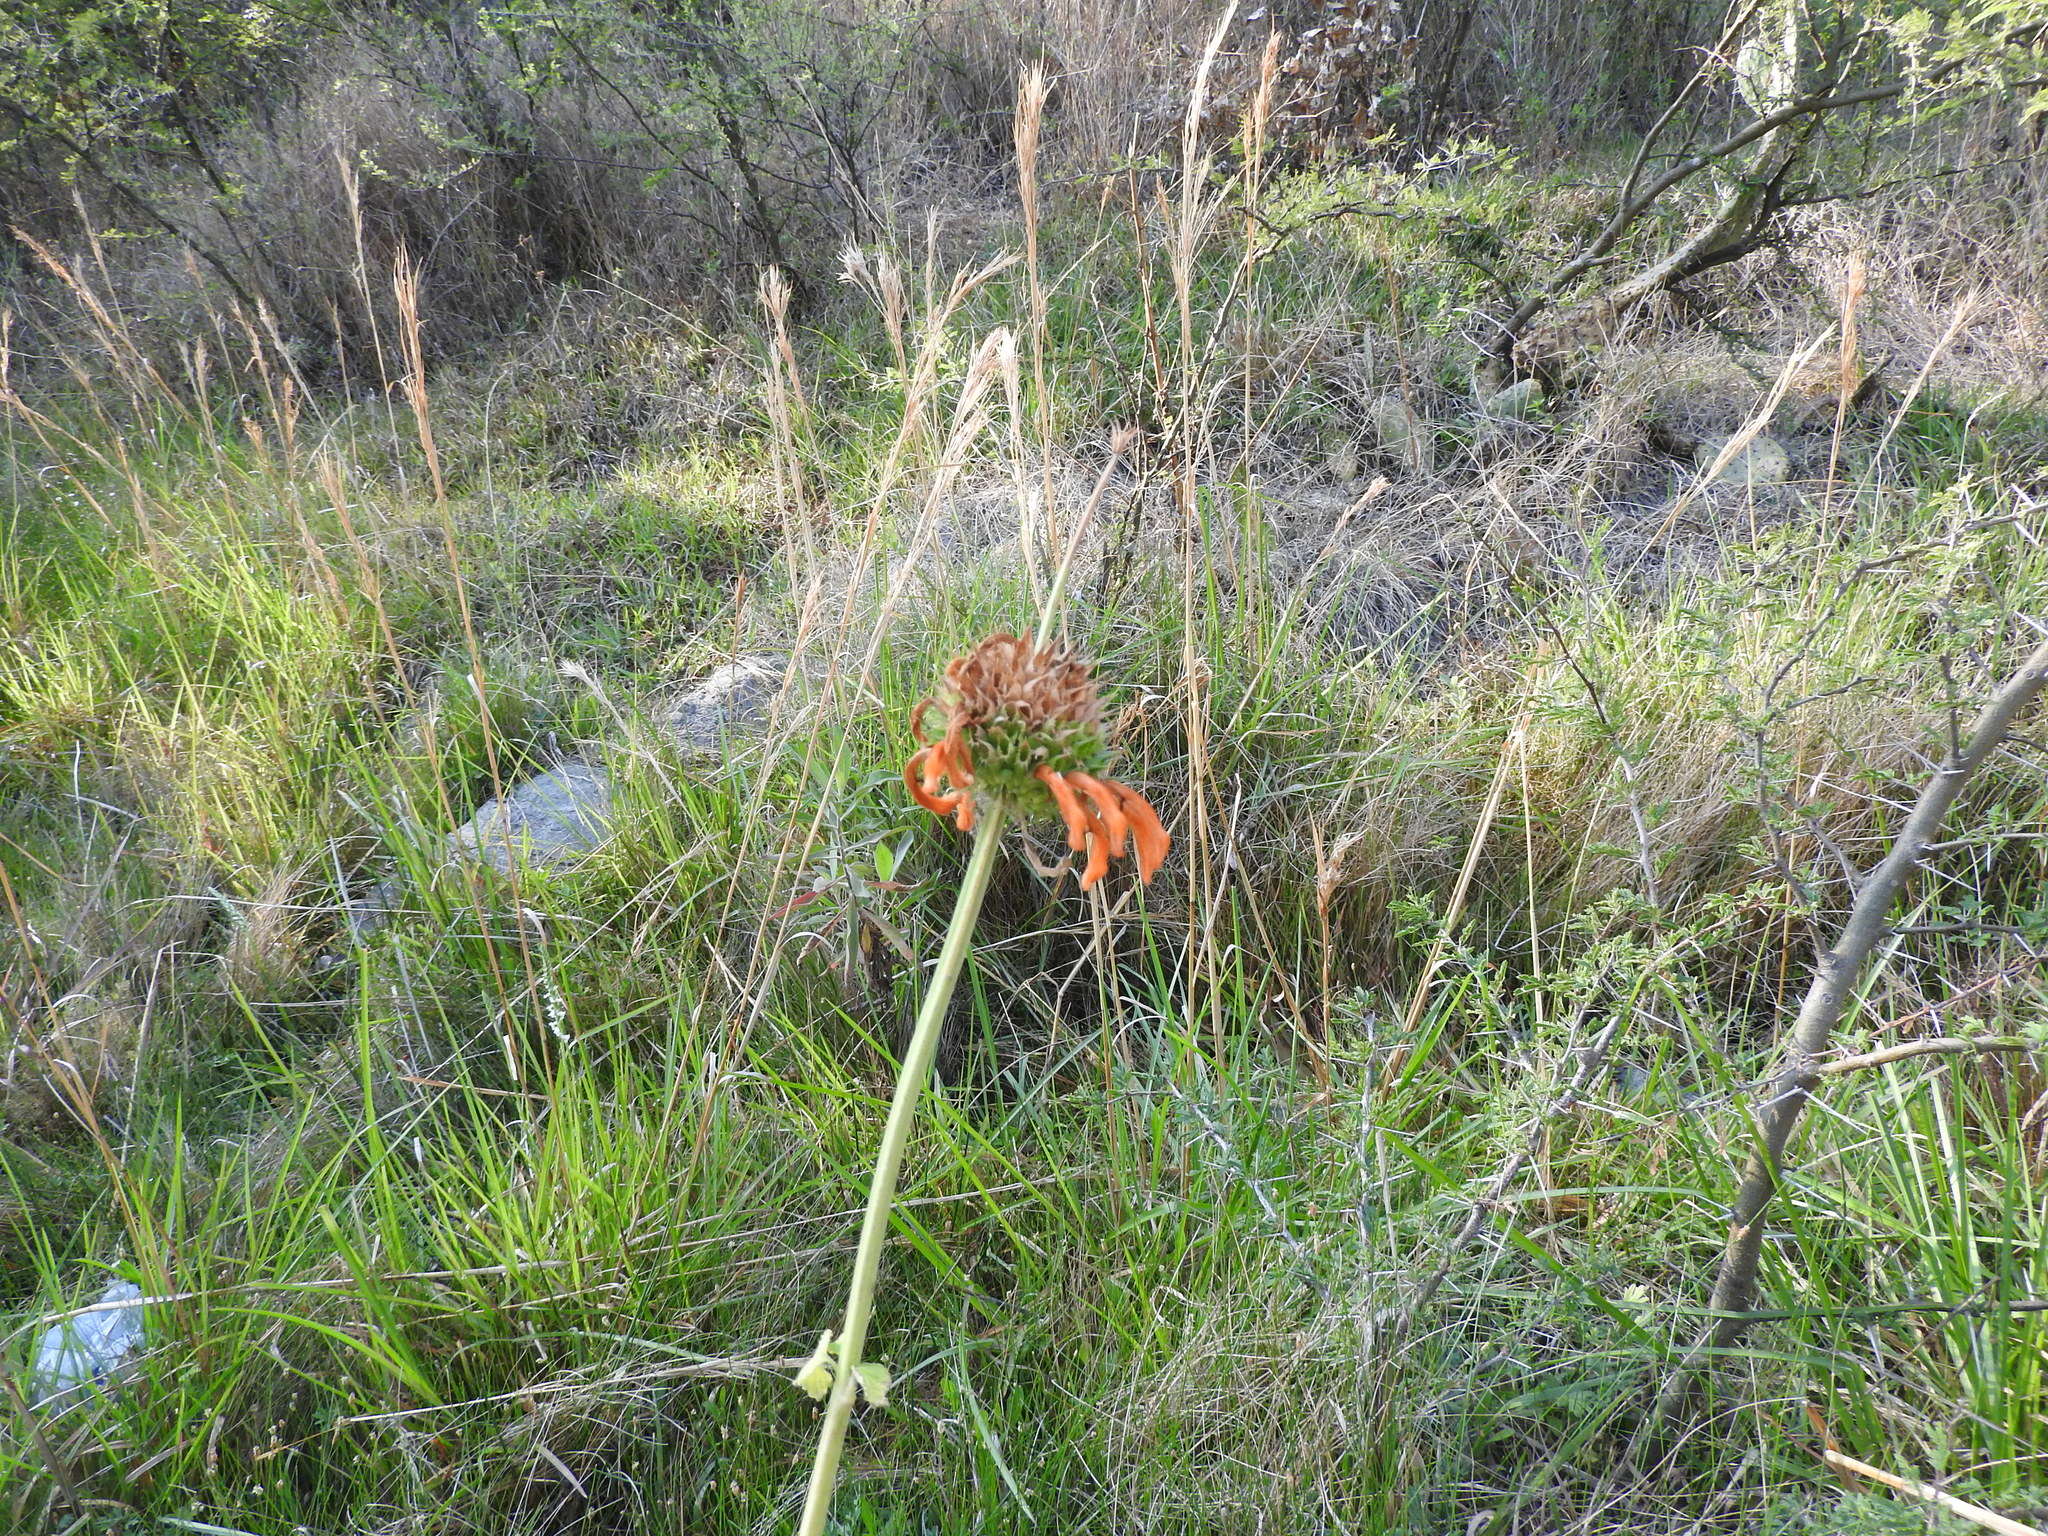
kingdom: Plantae
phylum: Tracheophyta
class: Magnoliopsida
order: Lamiales
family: Lamiaceae
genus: Leonotis
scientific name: Leonotis nepetifolia
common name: Christmas candlestick
